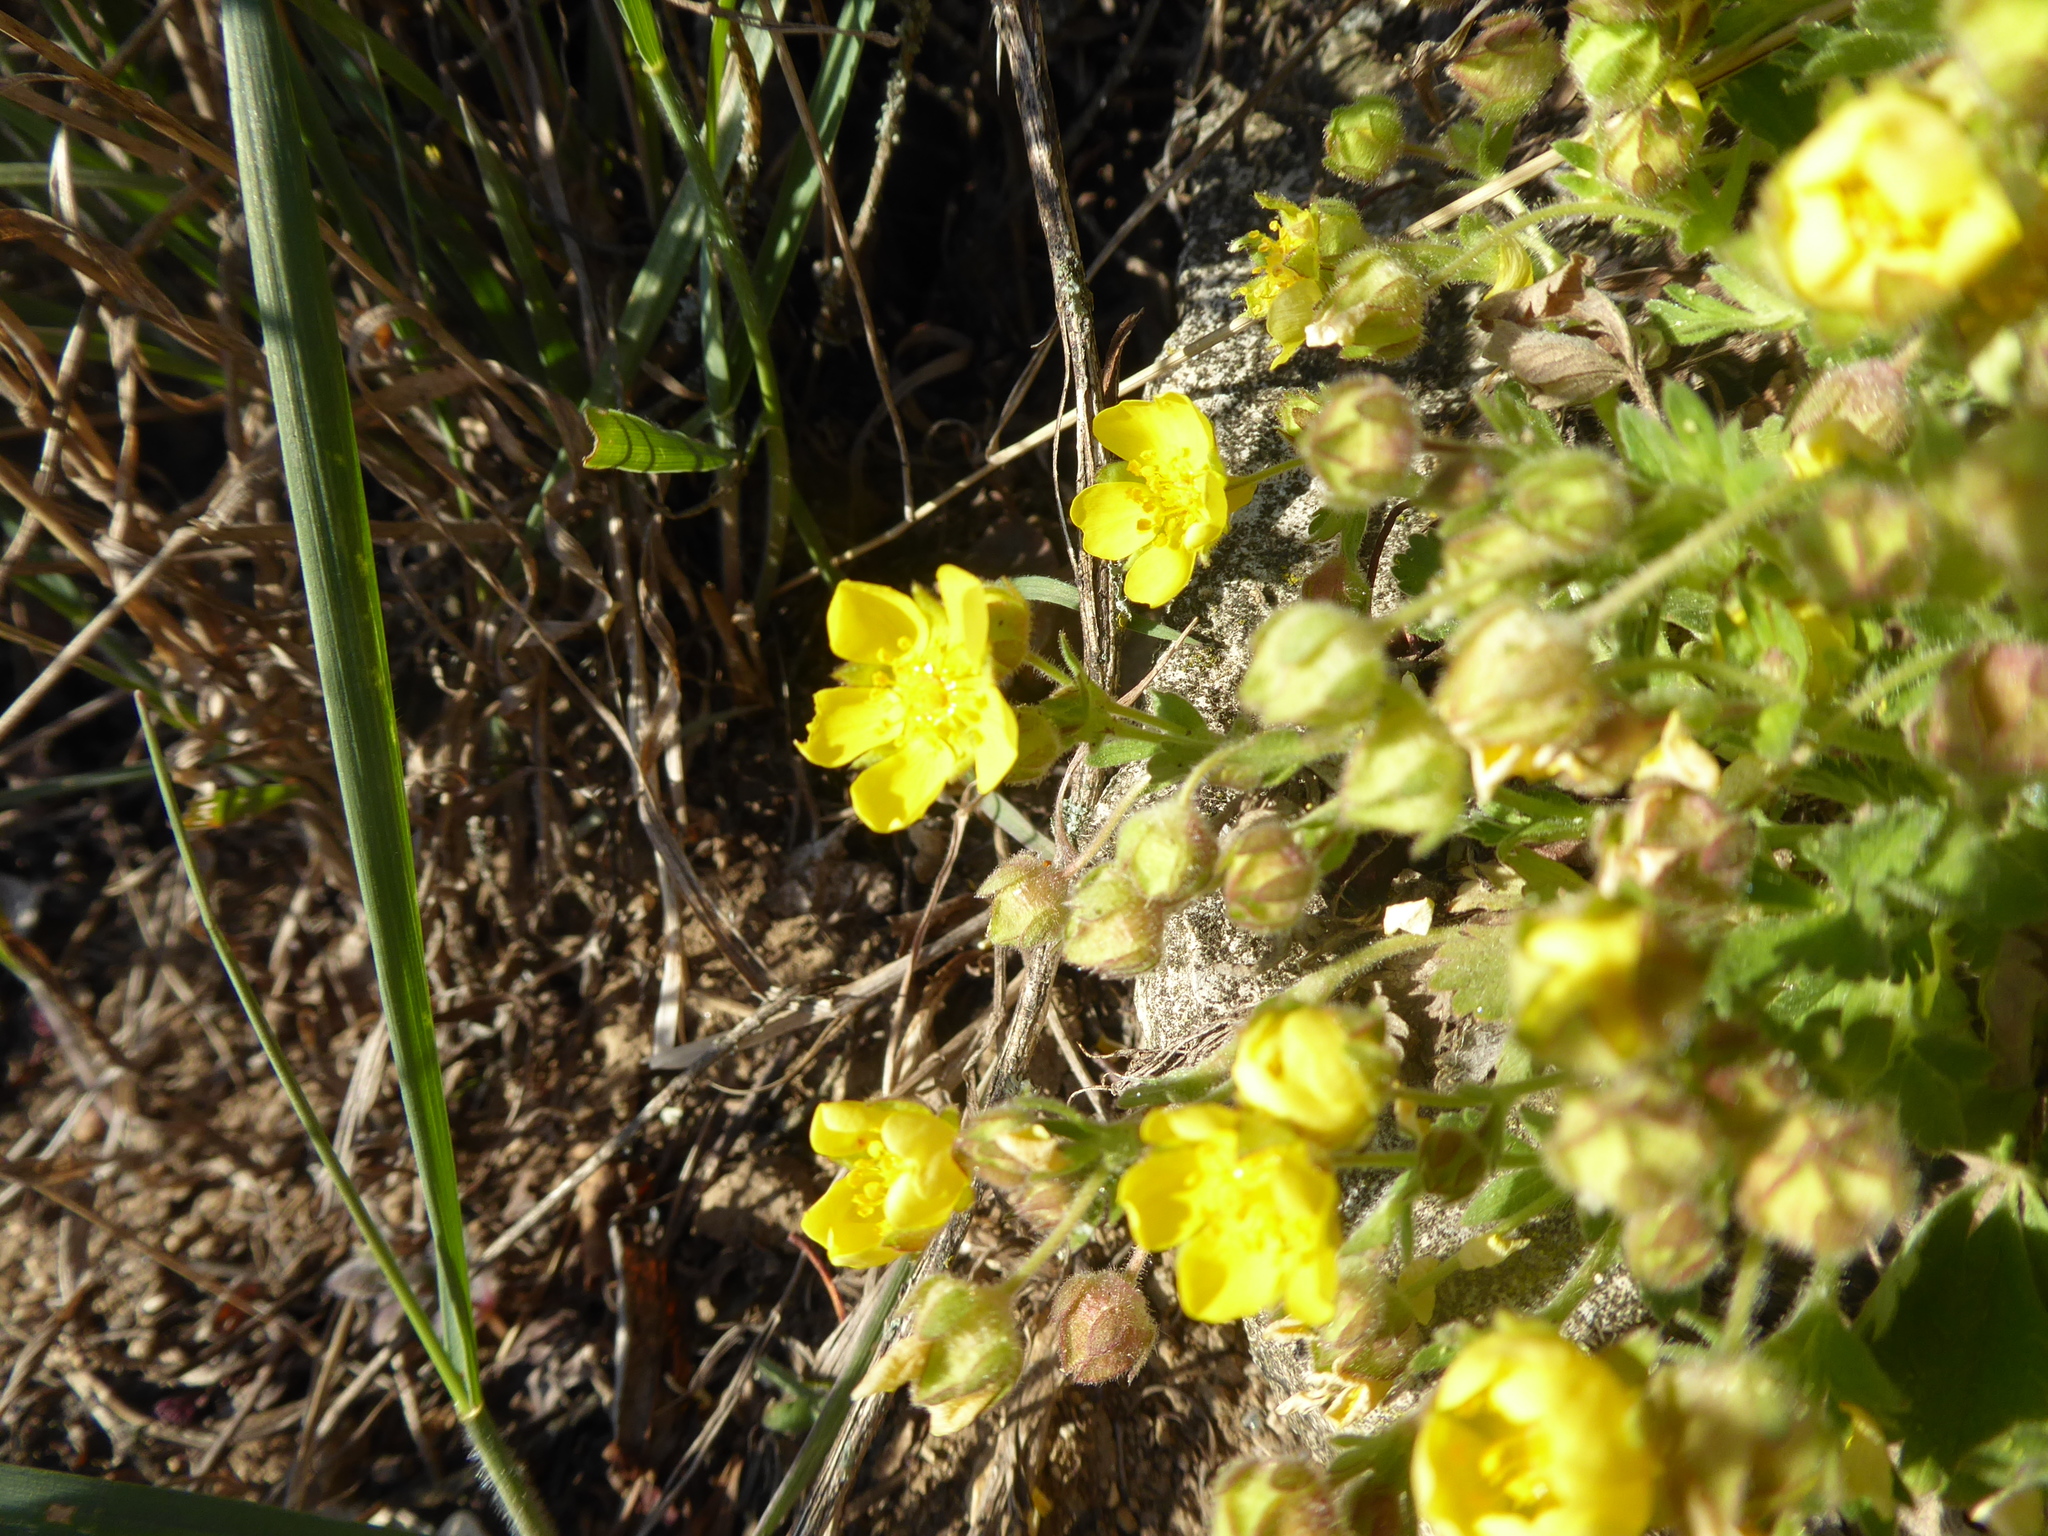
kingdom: Plantae
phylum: Tracheophyta
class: Magnoliopsida
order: Rosales
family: Rosaceae
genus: Potentilla
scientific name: Potentilla incana
